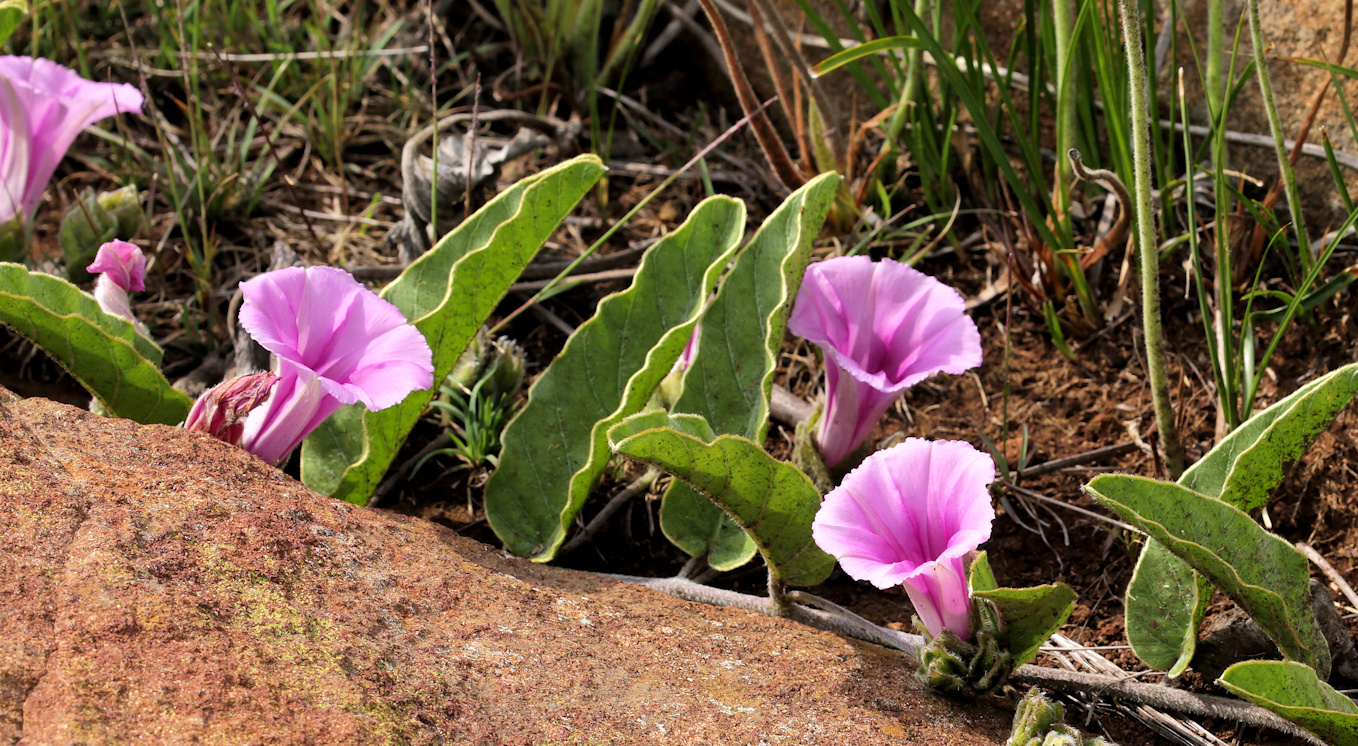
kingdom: Plantae
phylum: Tracheophyta
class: Magnoliopsida
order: Solanales
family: Convolvulaceae
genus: Ipomoea
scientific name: Ipomoea ommanneyi
